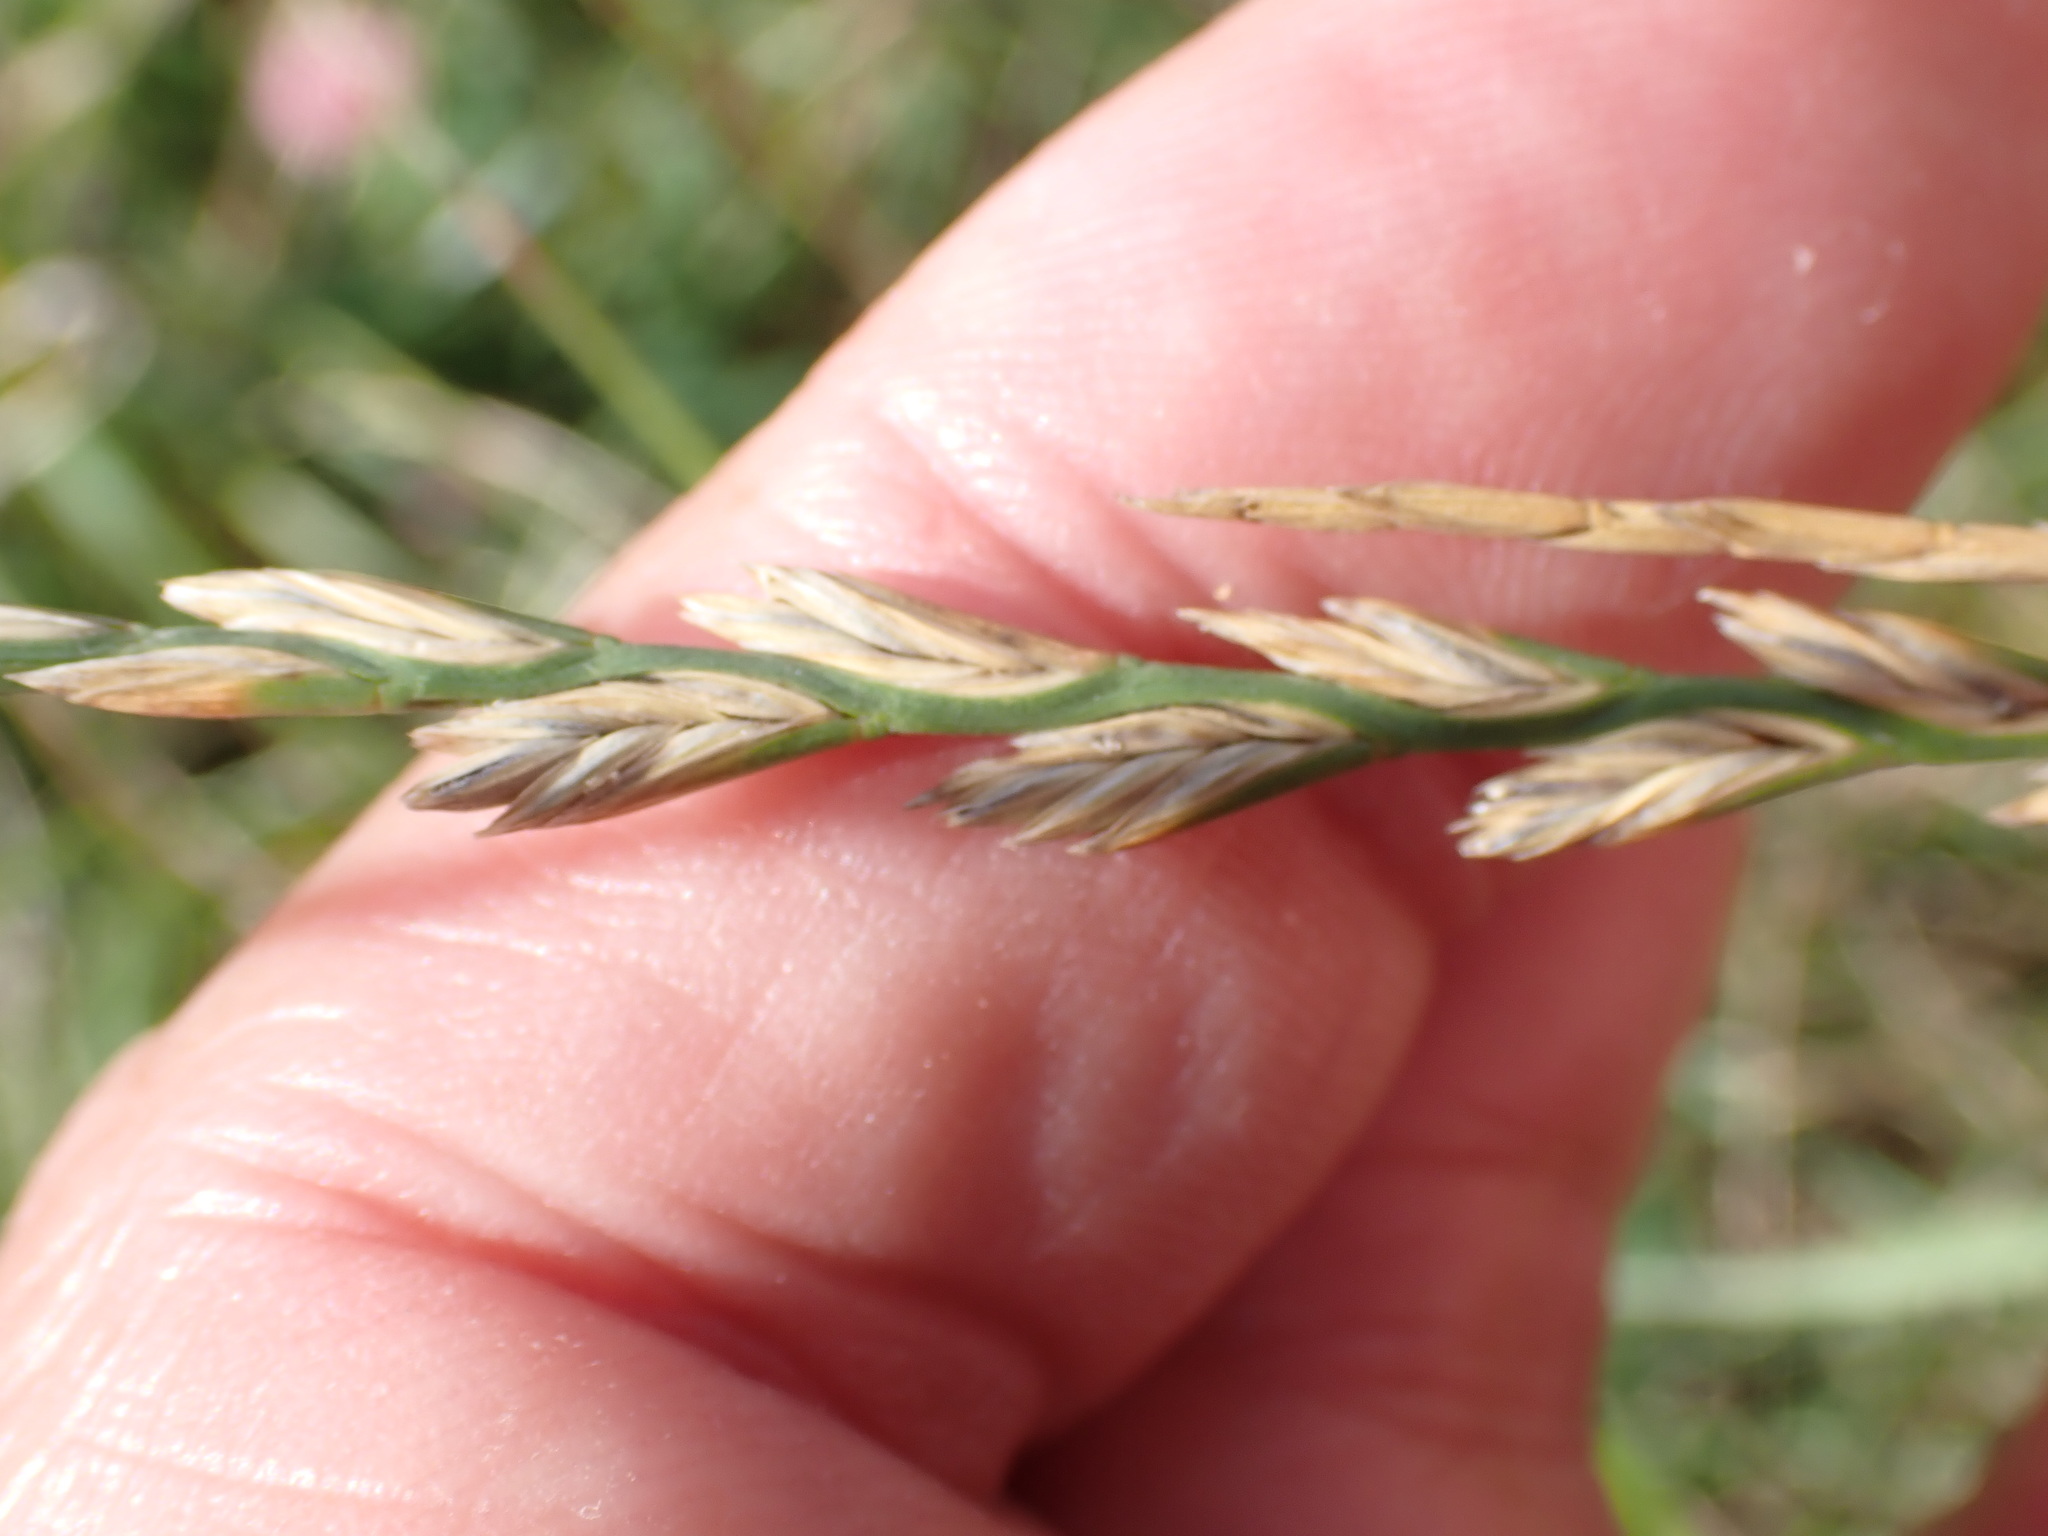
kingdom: Plantae
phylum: Tracheophyta
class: Liliopsida
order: Poales
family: Poaceae
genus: Lolium
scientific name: Lolium perenne
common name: Perennial ryegrass
